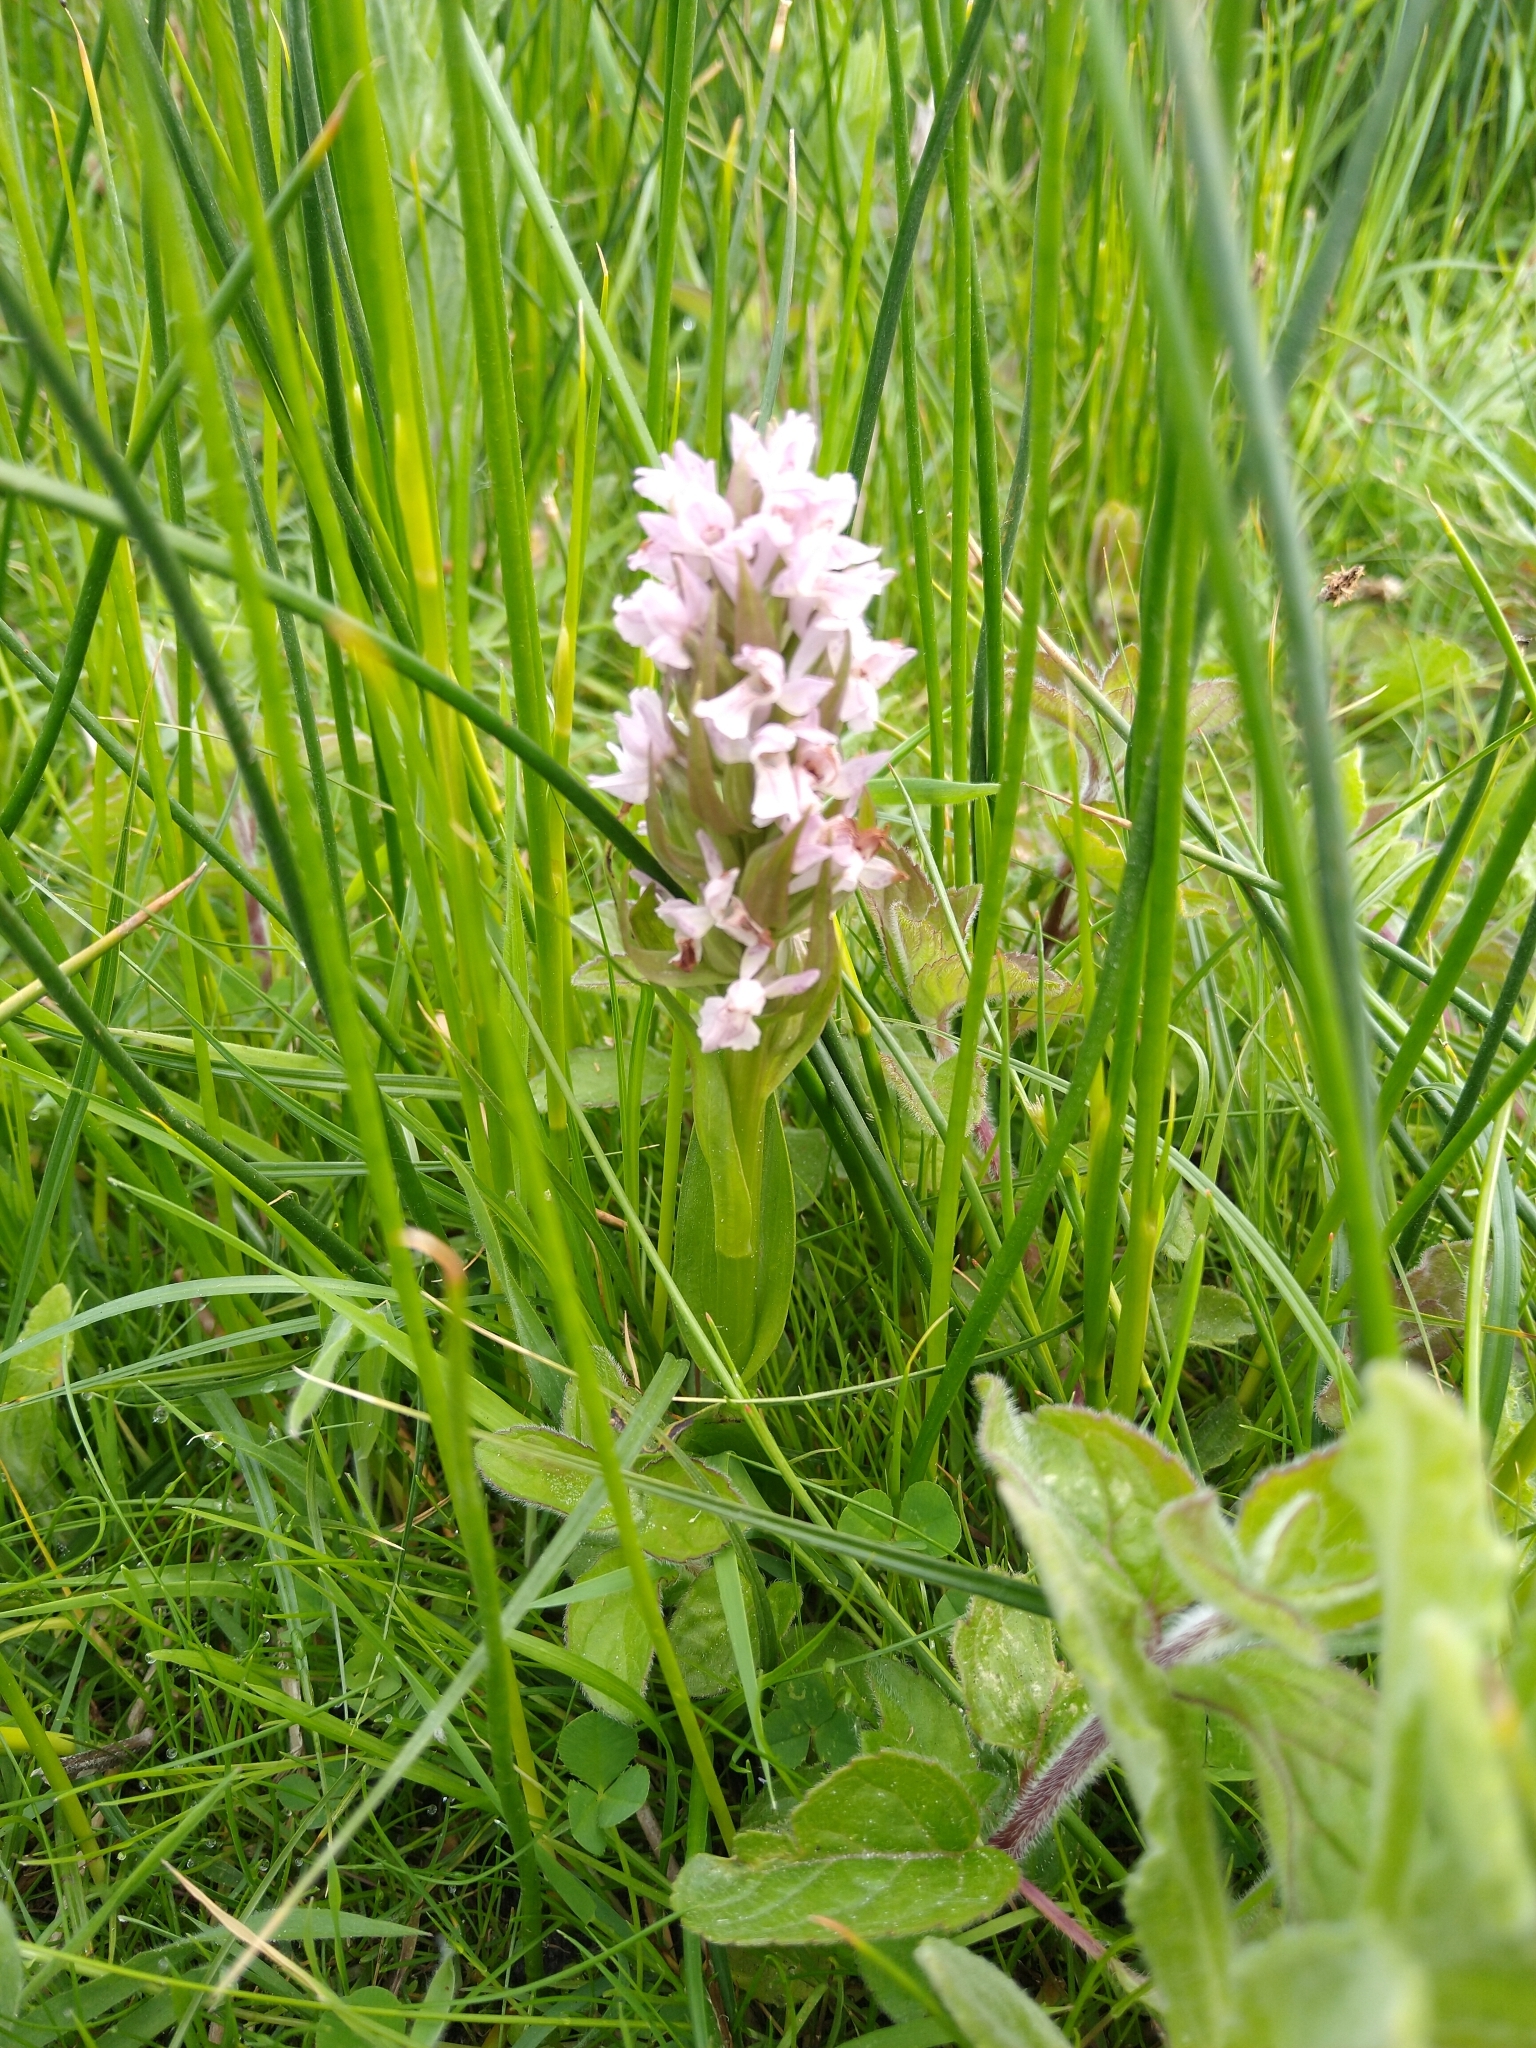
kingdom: Plantae
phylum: Tracheophyta
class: Liliopsida
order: Asparagales
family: Orchidaceae
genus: Dactylorhiza
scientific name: Dactylorhiza incarnata
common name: Early marsh-orchid
